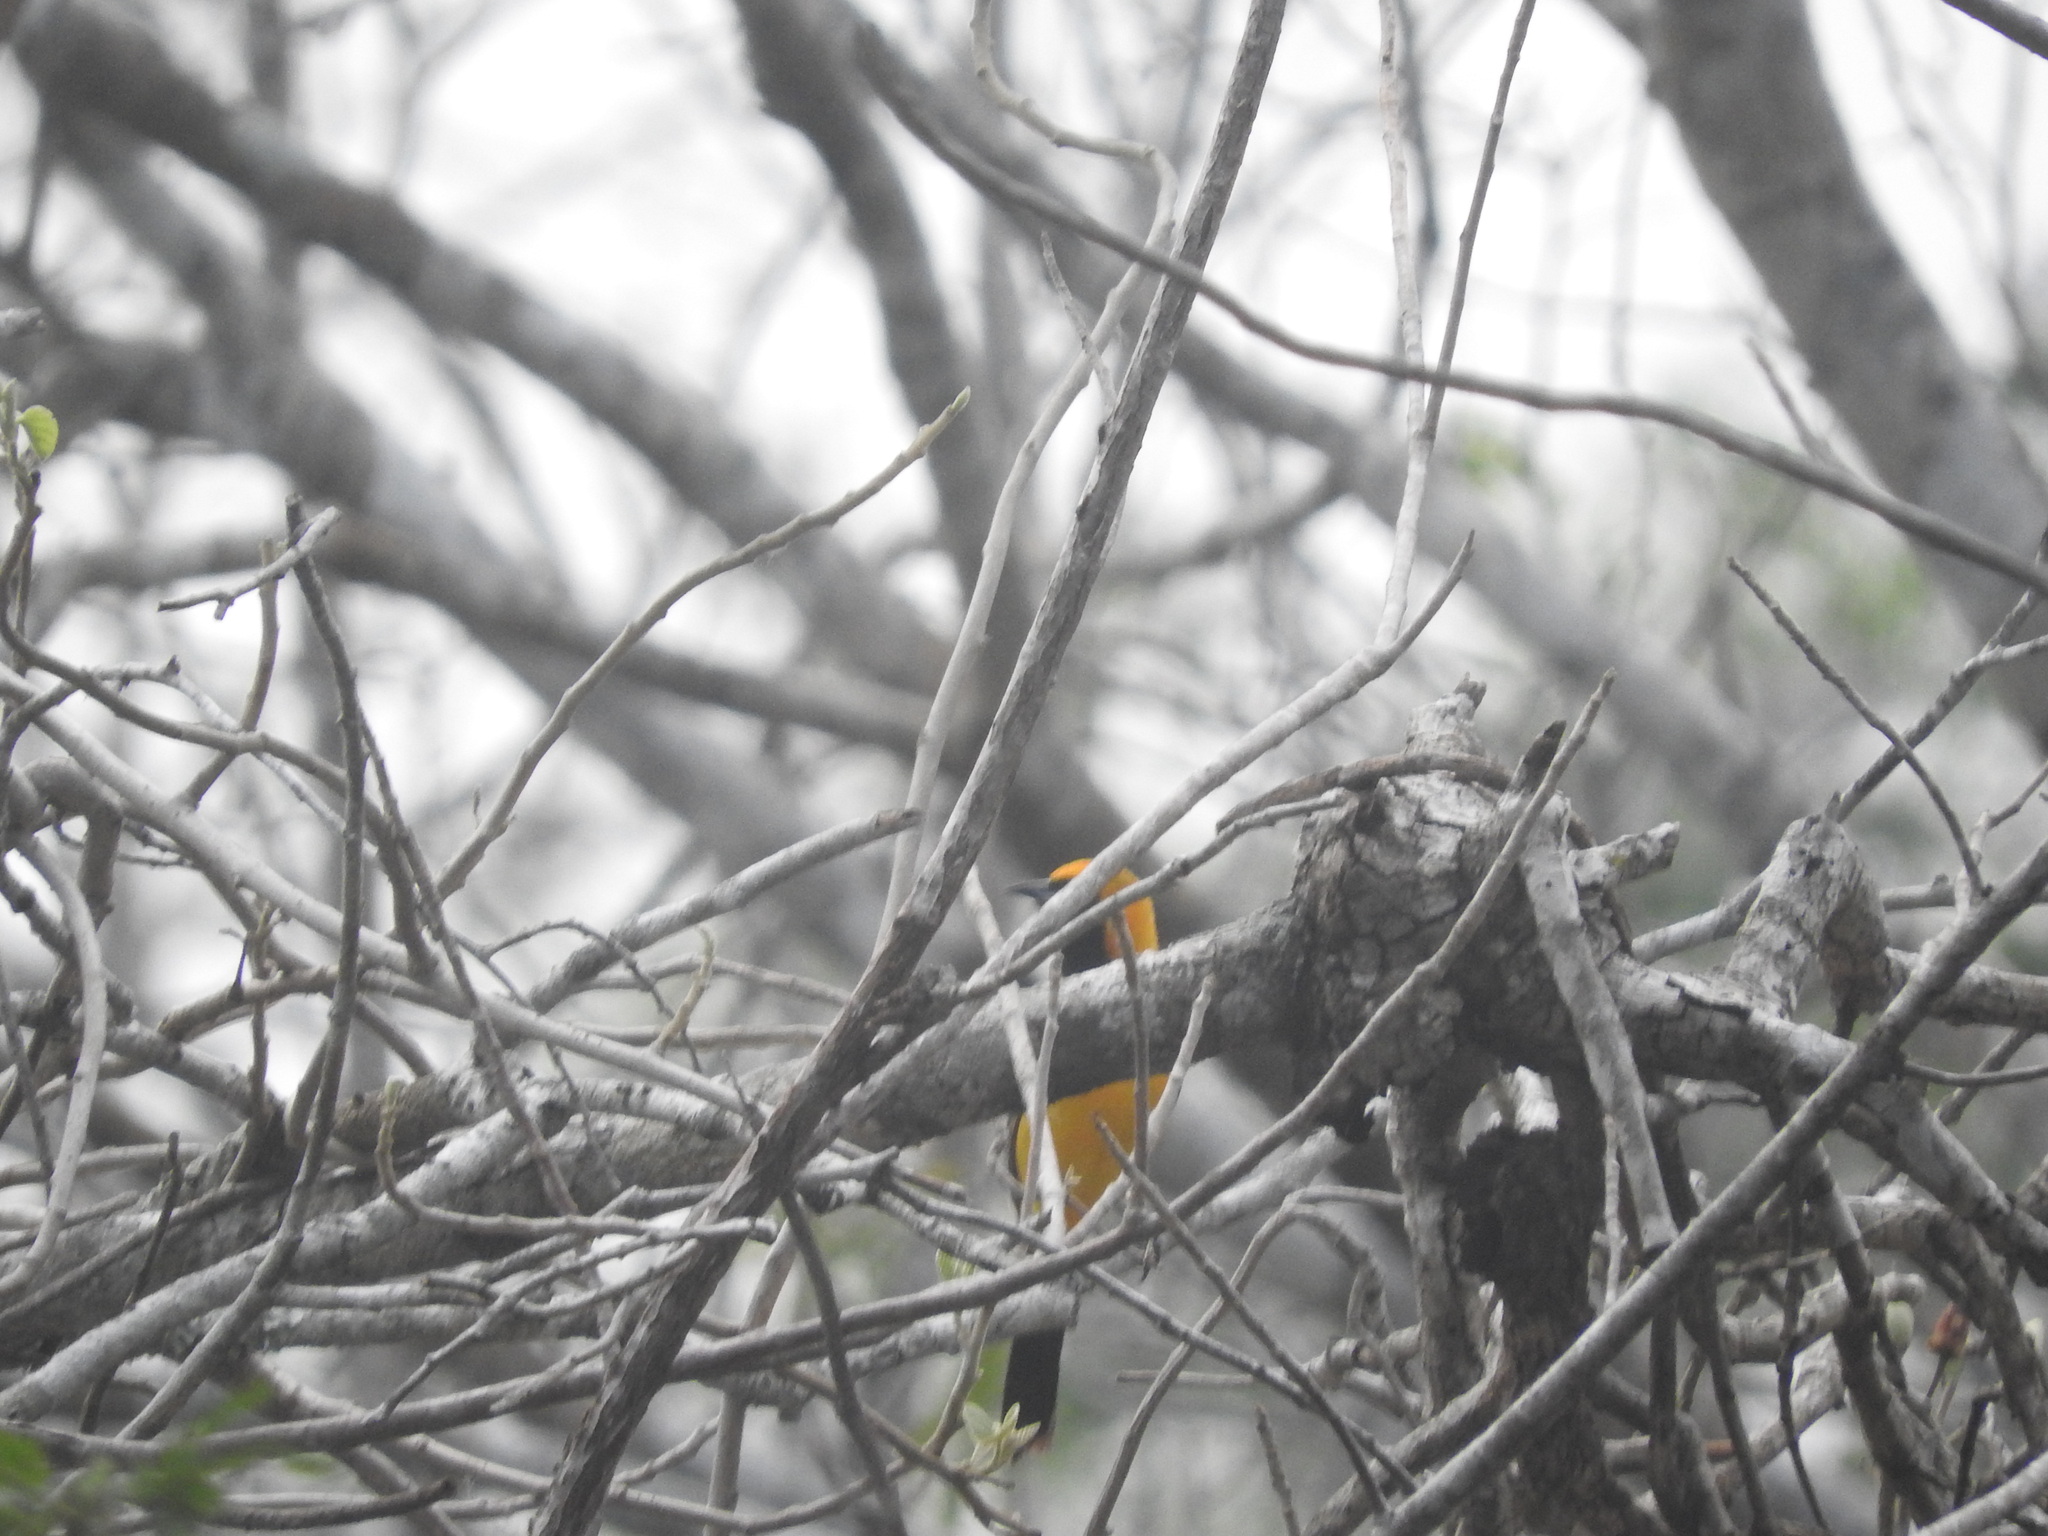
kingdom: Animalia
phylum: Chordata
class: Aves
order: Passeriformes
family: Icteridae
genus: Icterus
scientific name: Icterus gularis
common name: Altamira oriole
